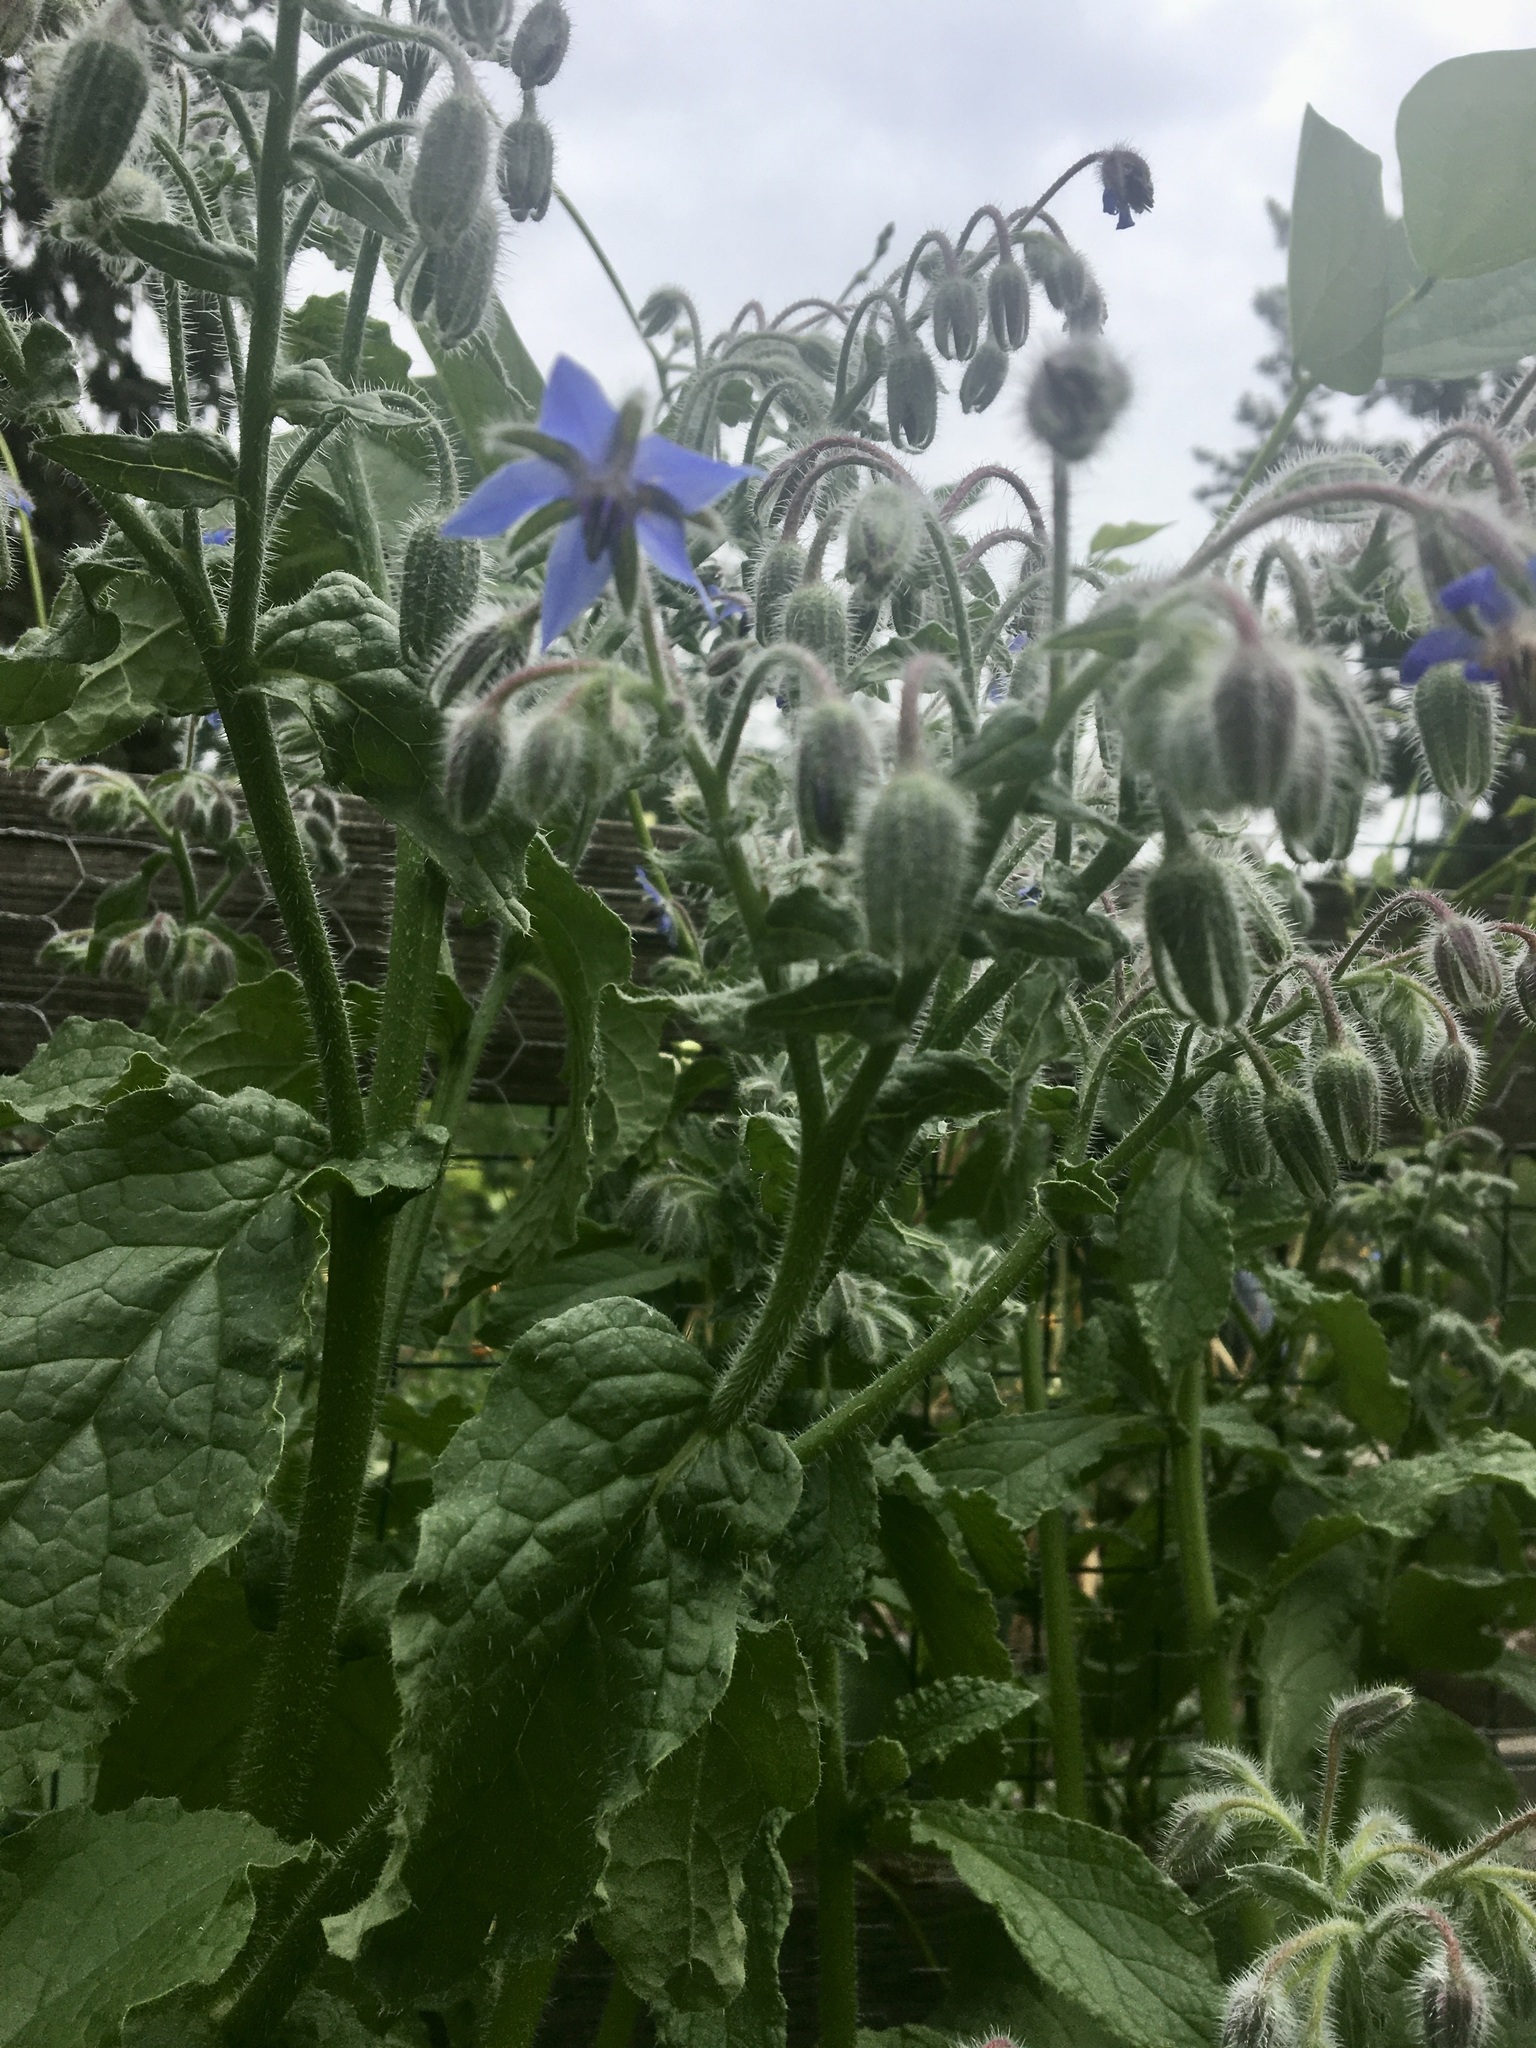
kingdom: Plantae
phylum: Tracheophyta
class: Magnoliopsida
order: Boraginales
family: Boraginaceae
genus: Borago
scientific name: Borago officinalis
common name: Borage
